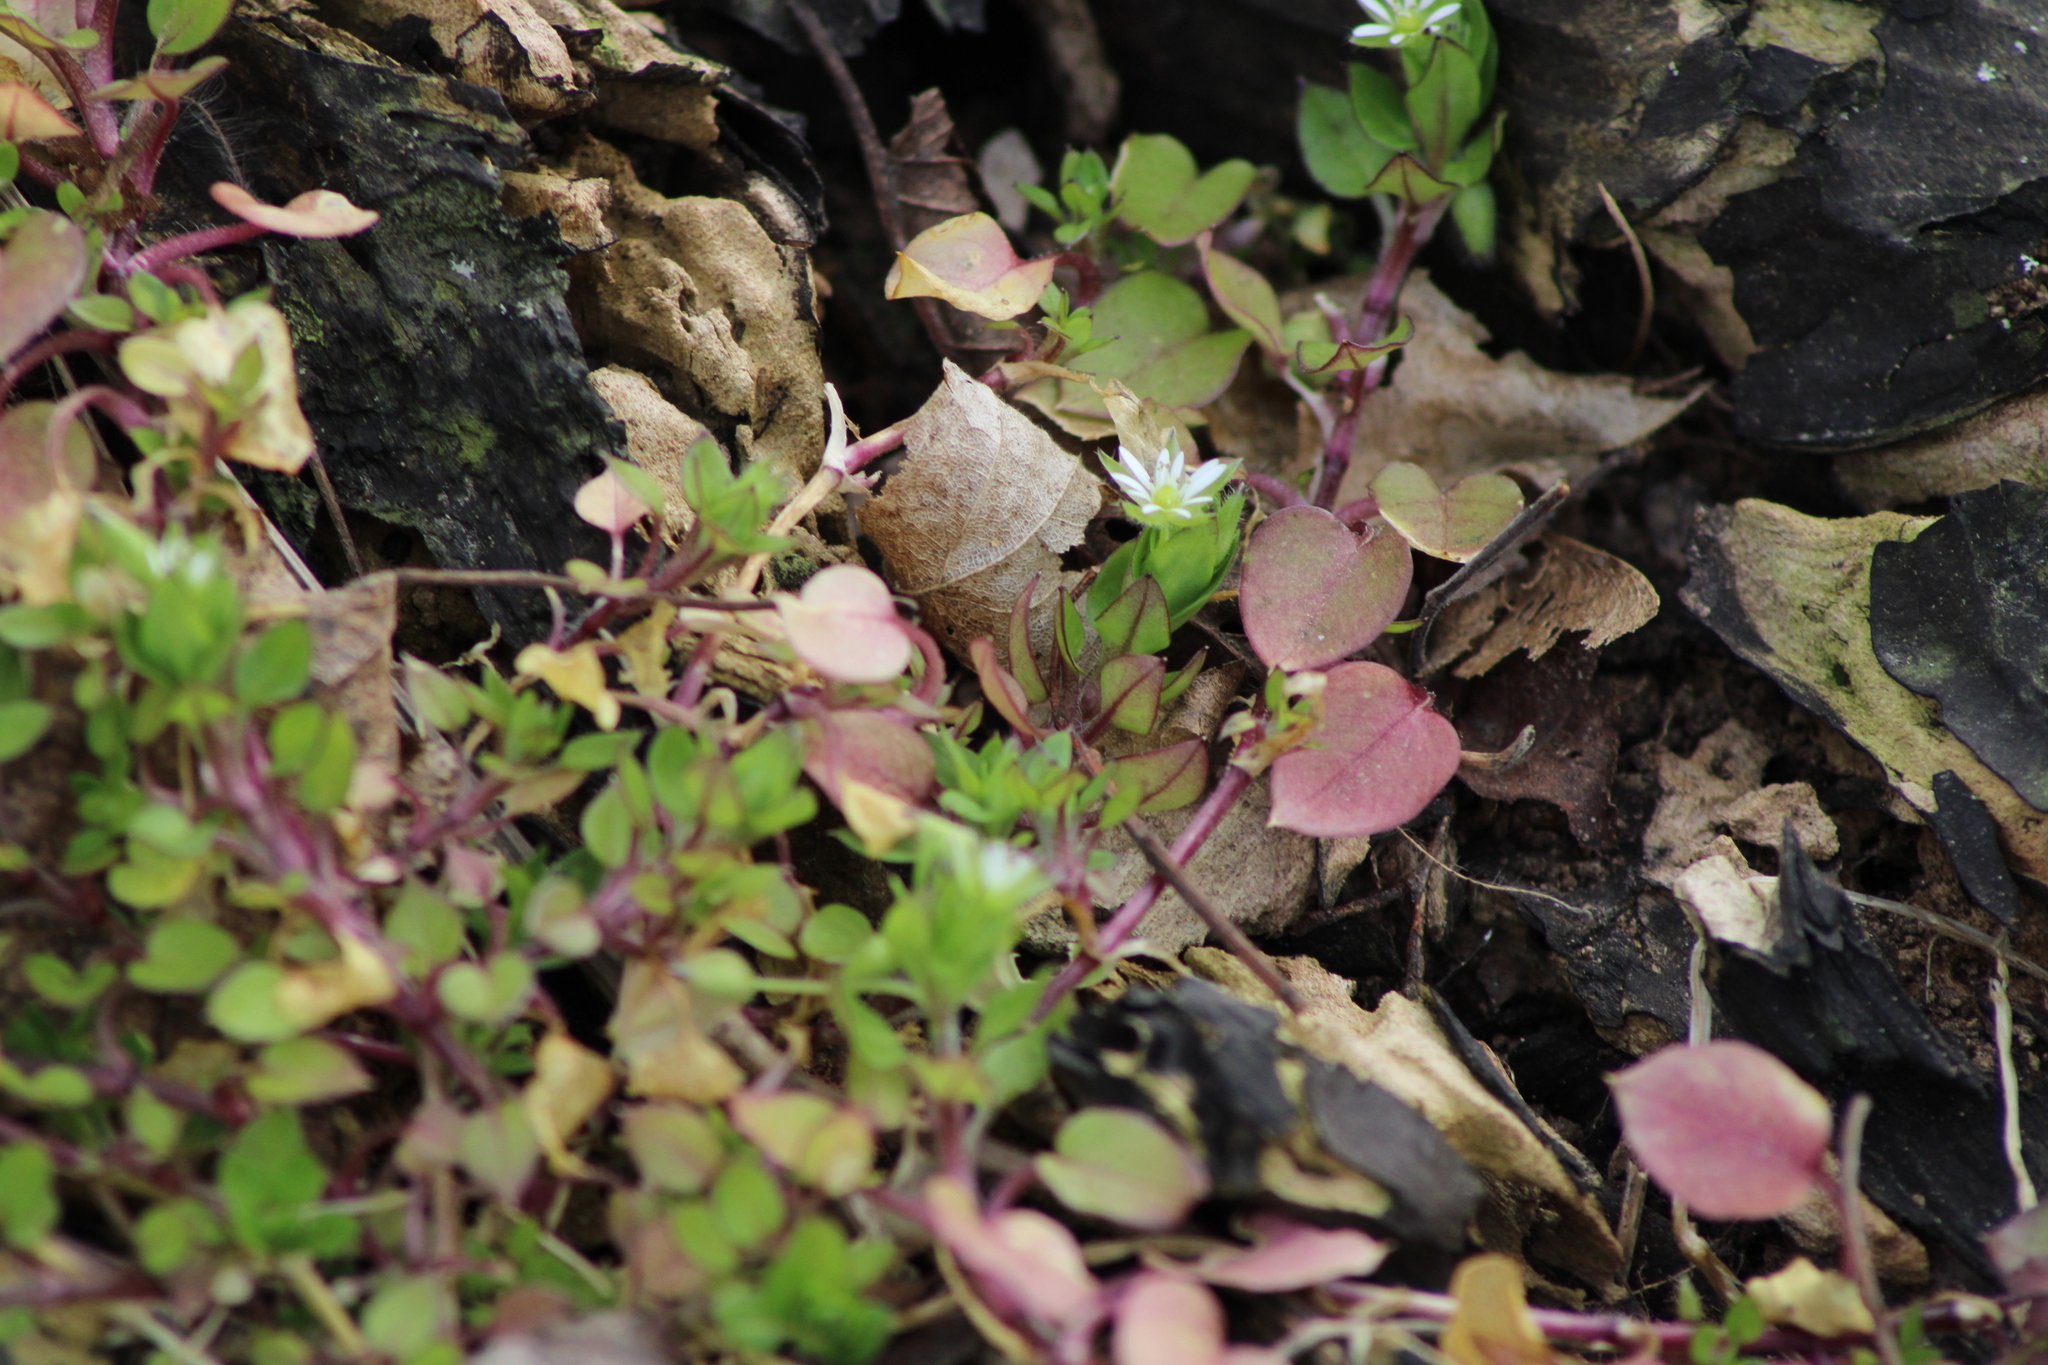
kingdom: Plantae
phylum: Tracheophyta
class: Magnoliopsida
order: Caryophyllales
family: Caryophyllaceae
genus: Stellaria
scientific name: Stellaria
